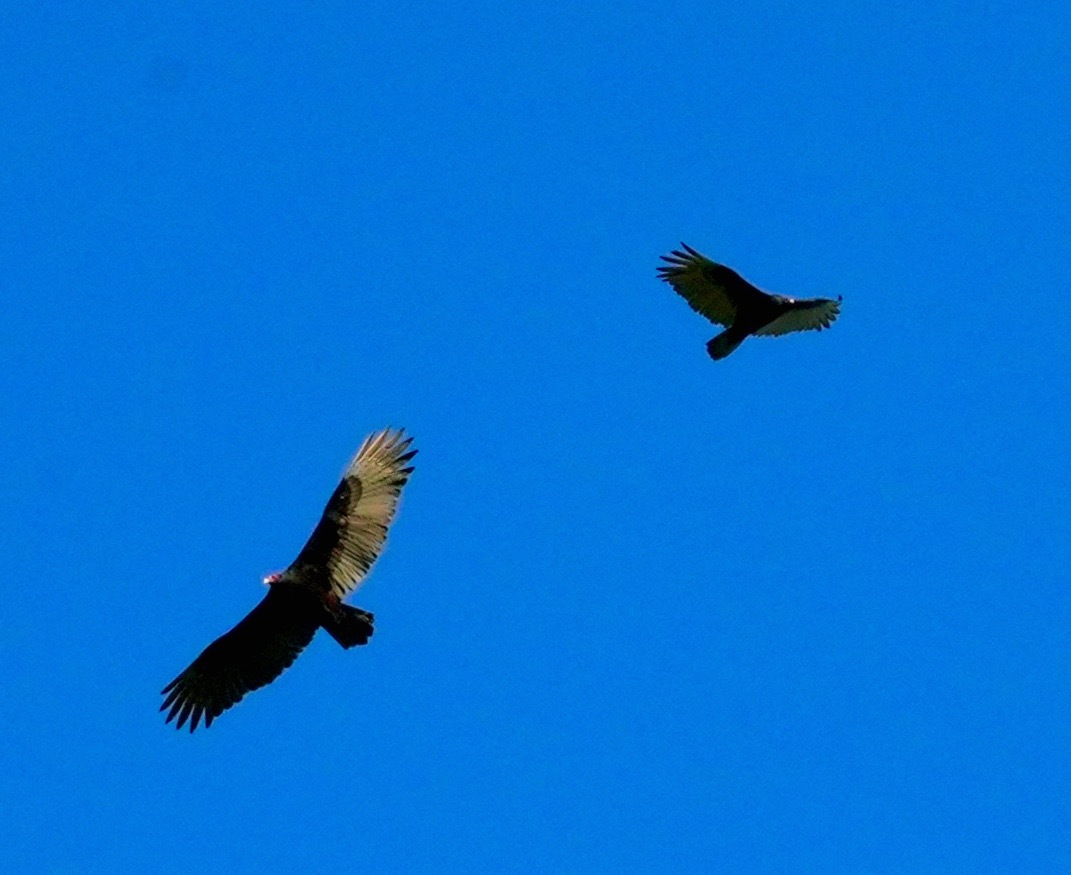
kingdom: Animalia
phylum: Chordata
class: Aves
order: Accipitriformes
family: Cathartidae
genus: Cathartes
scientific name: Cathartes aura
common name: Turkey vulture
